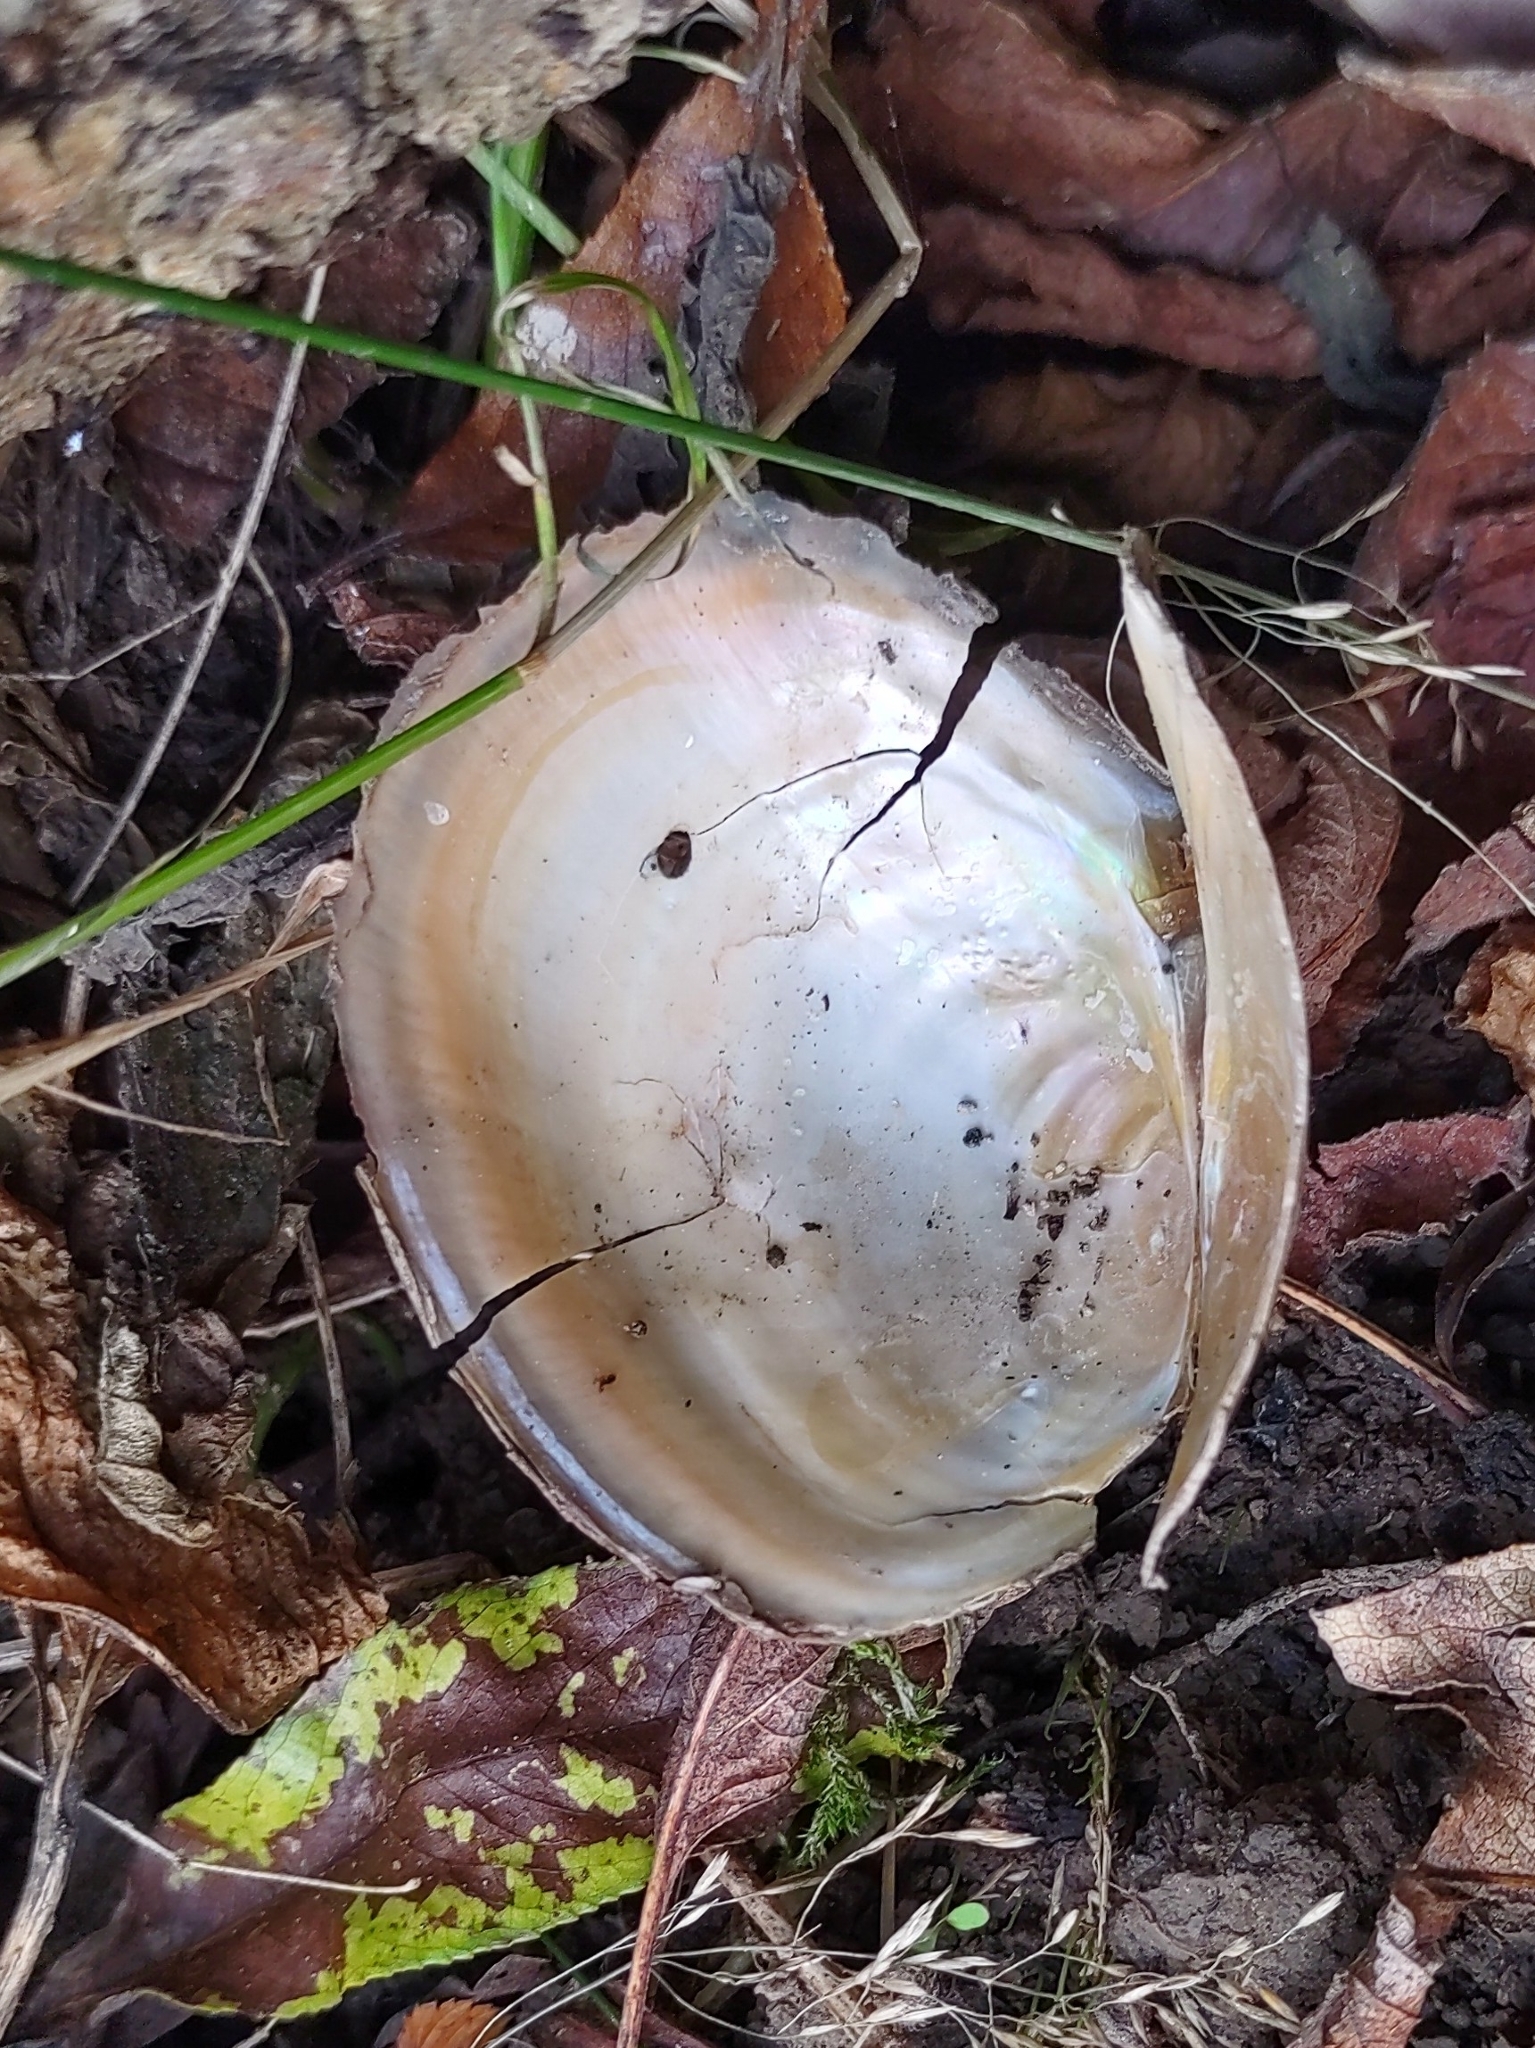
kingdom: Animalia
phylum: Mollusca
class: Bivalvia
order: Unionida
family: Unionidae
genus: Sinanodonta
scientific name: Sinanodonta woodiana
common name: Chinese pond mussel
